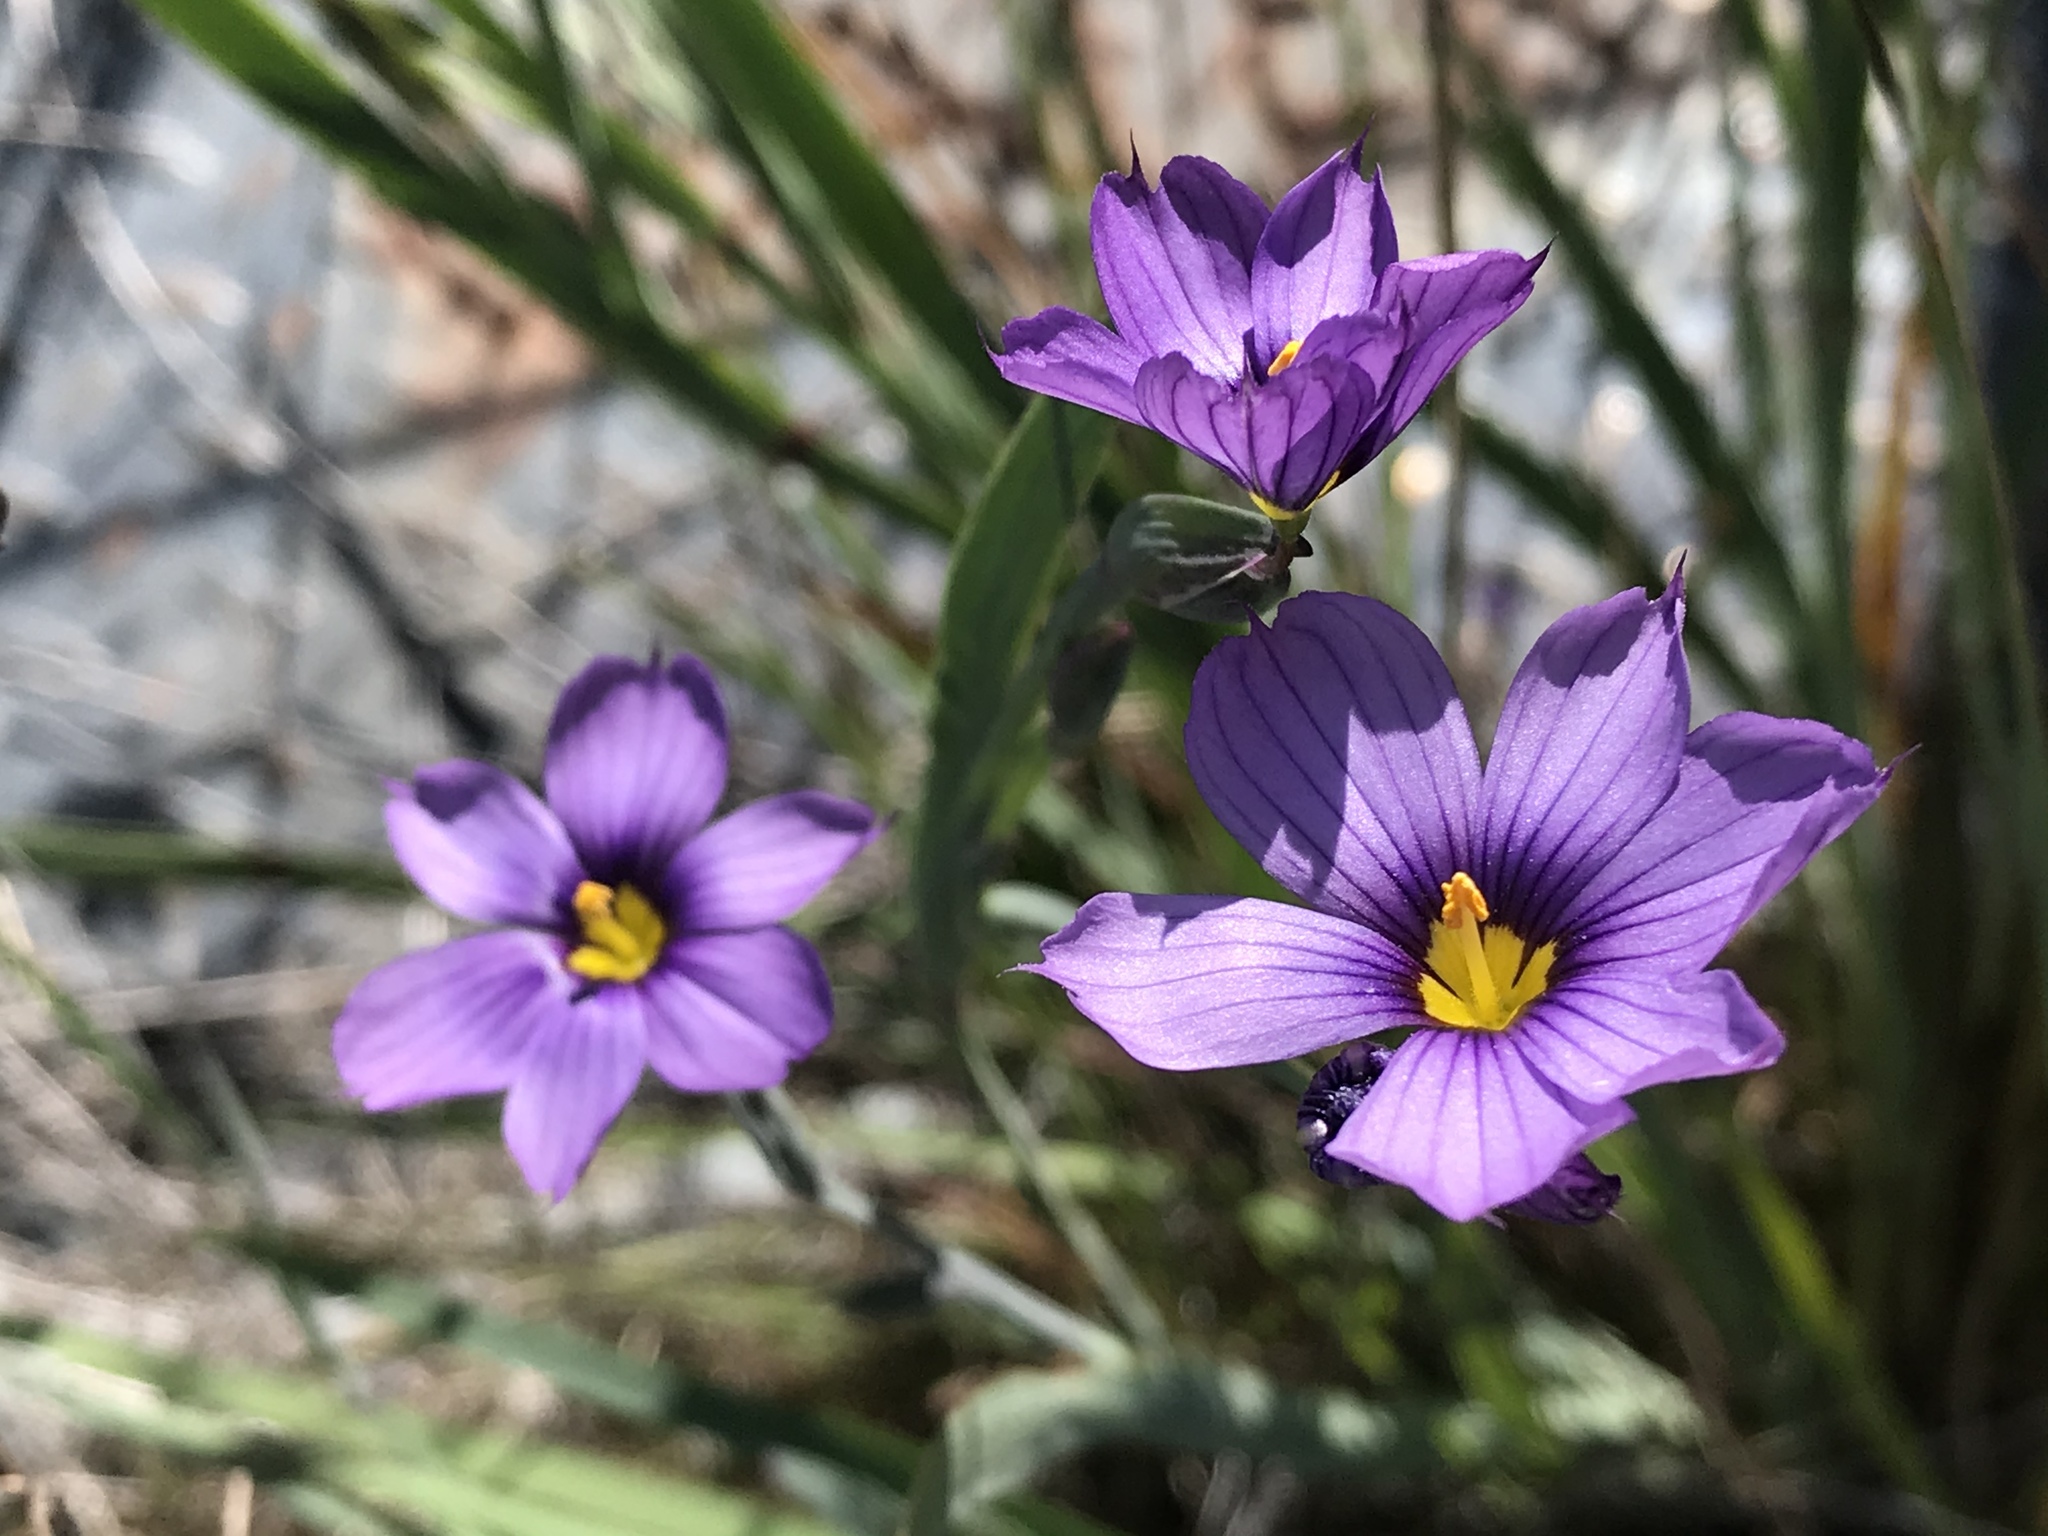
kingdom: Plantae
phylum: Tracheophyta
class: Liliopsida
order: Asparagales
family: Iridaceae
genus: Sisyrinchium
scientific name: Sisyrinchium bellum
